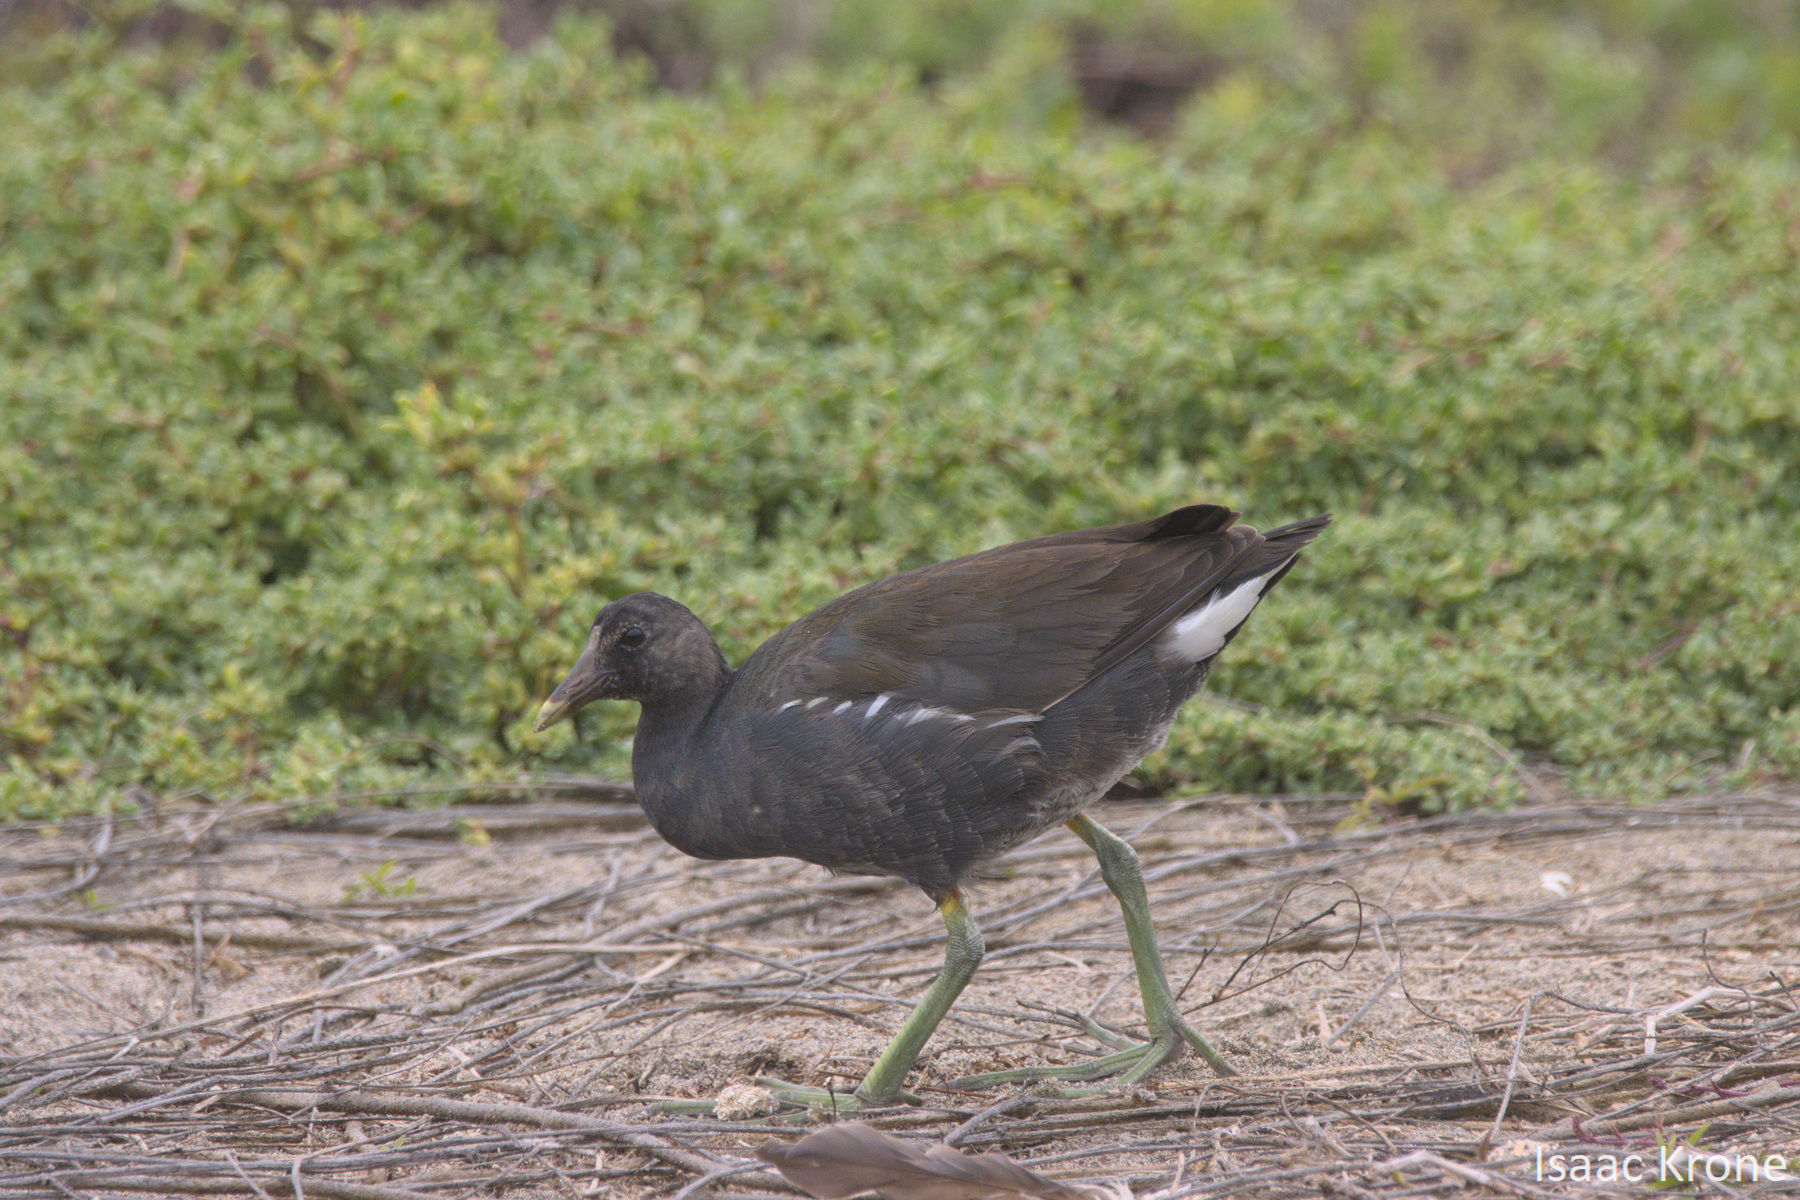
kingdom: Animalia
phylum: Chordata
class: Aves
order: Gruiformes
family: Rallidae
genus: Gallinula
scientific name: Gallinula chloropus
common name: Common moorhen
